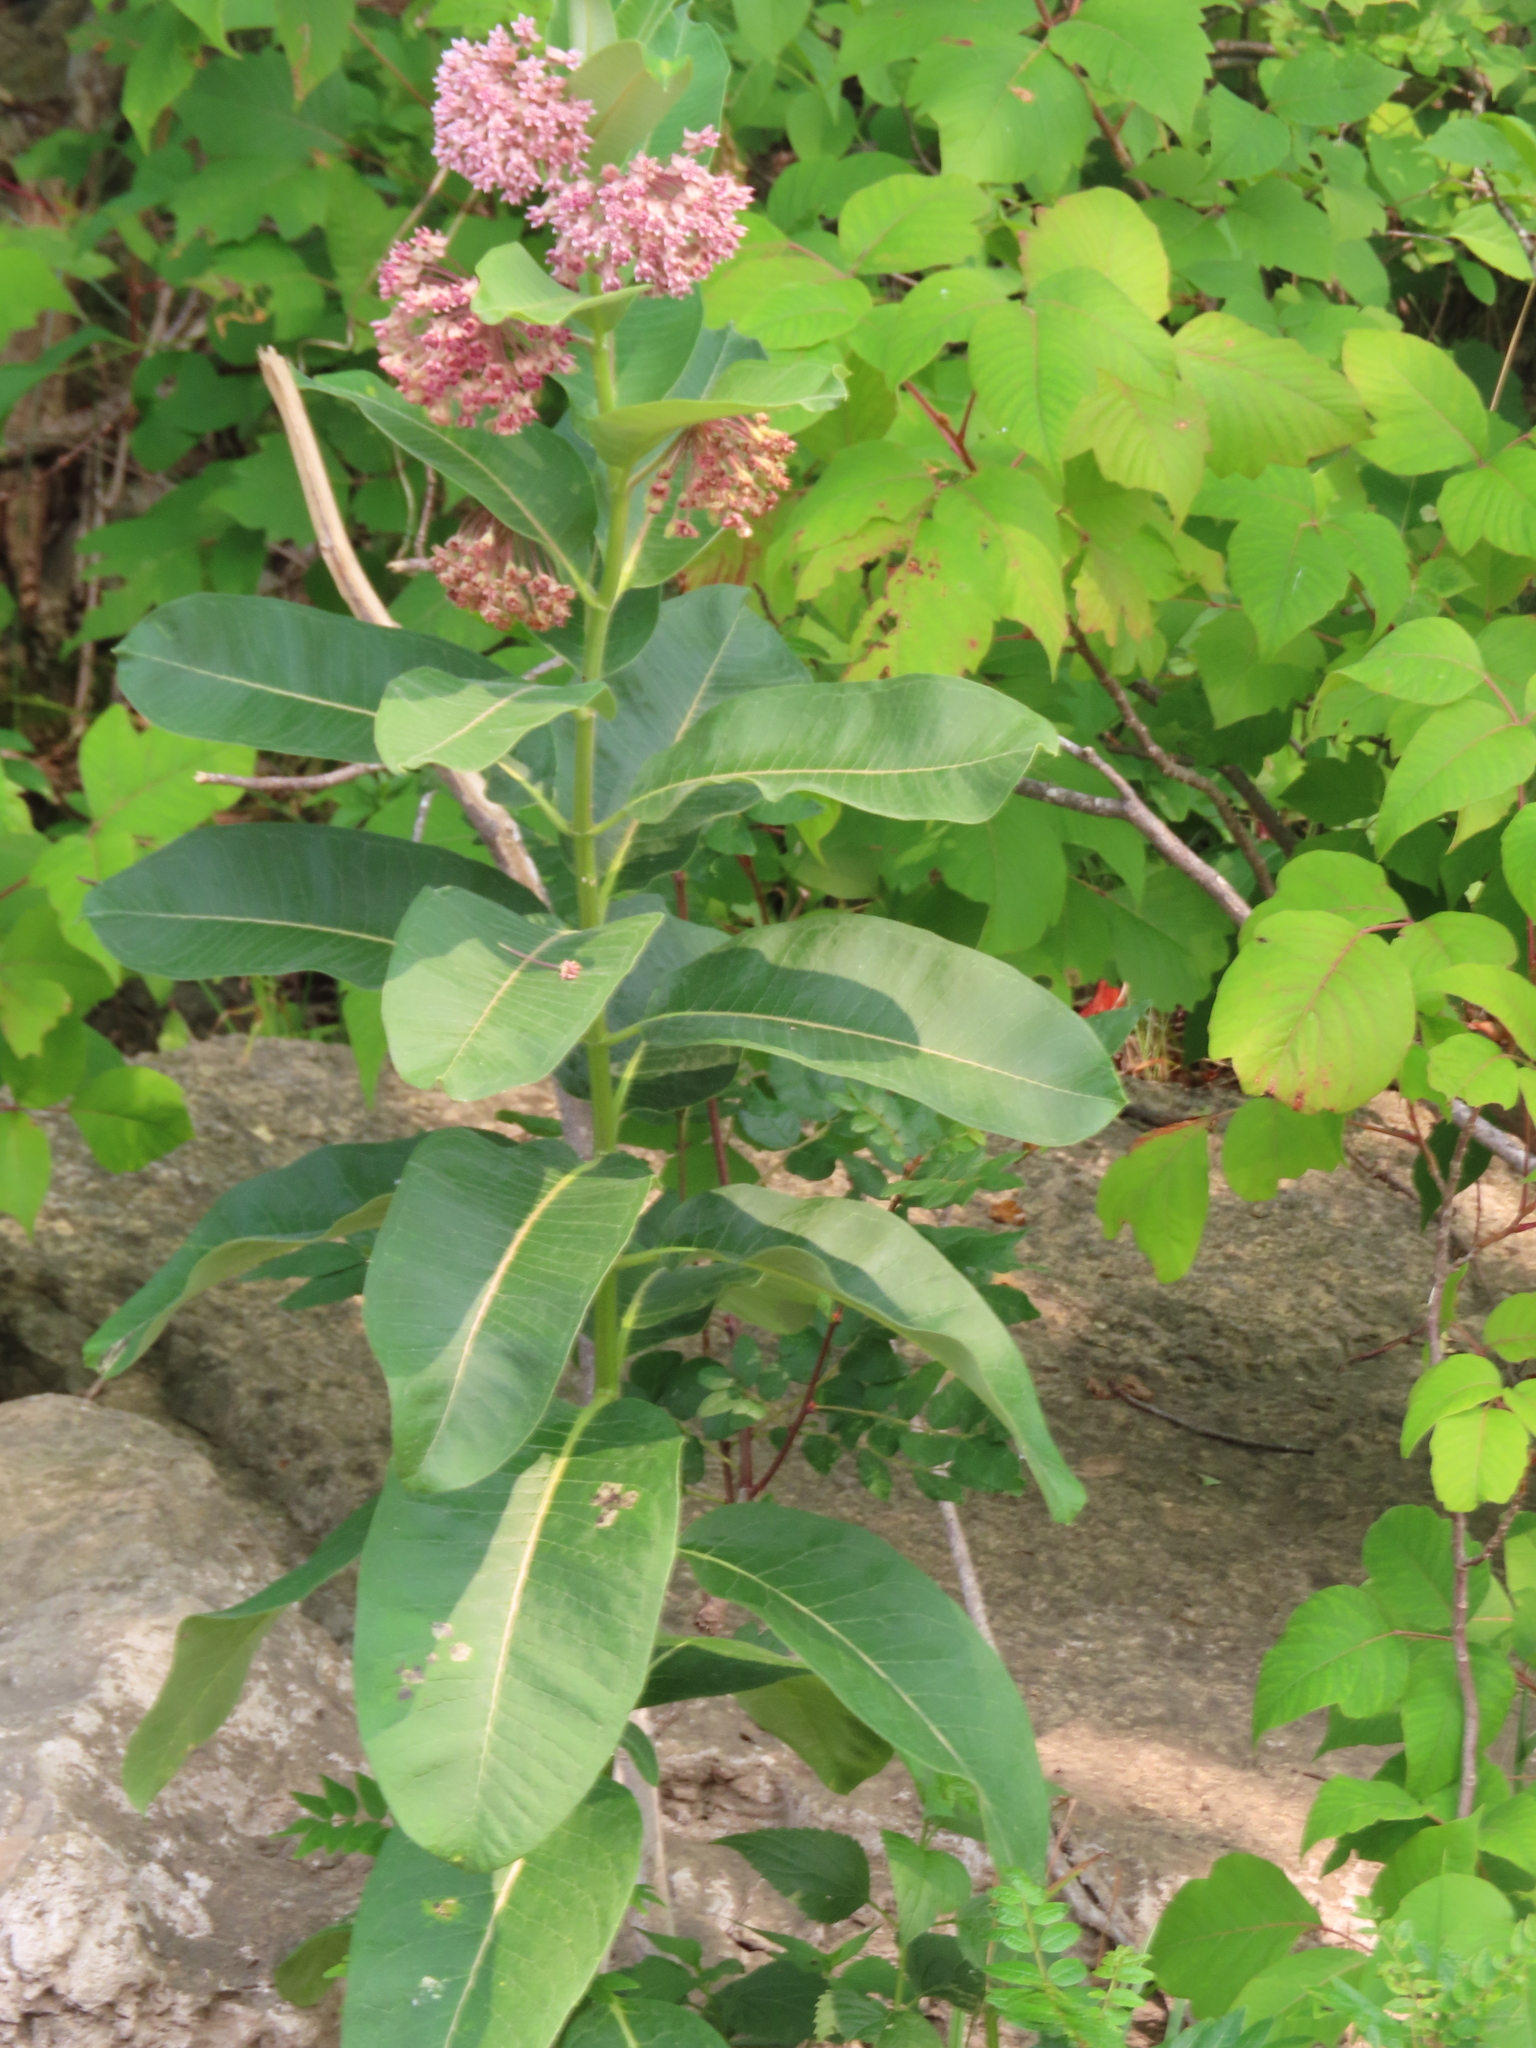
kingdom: Plantae
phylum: Tracheophyta
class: Magnoliopsida
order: Gentianales
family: Apocynaceae
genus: Asclepias
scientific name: Asclepias syriaca
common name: Common milkweed
